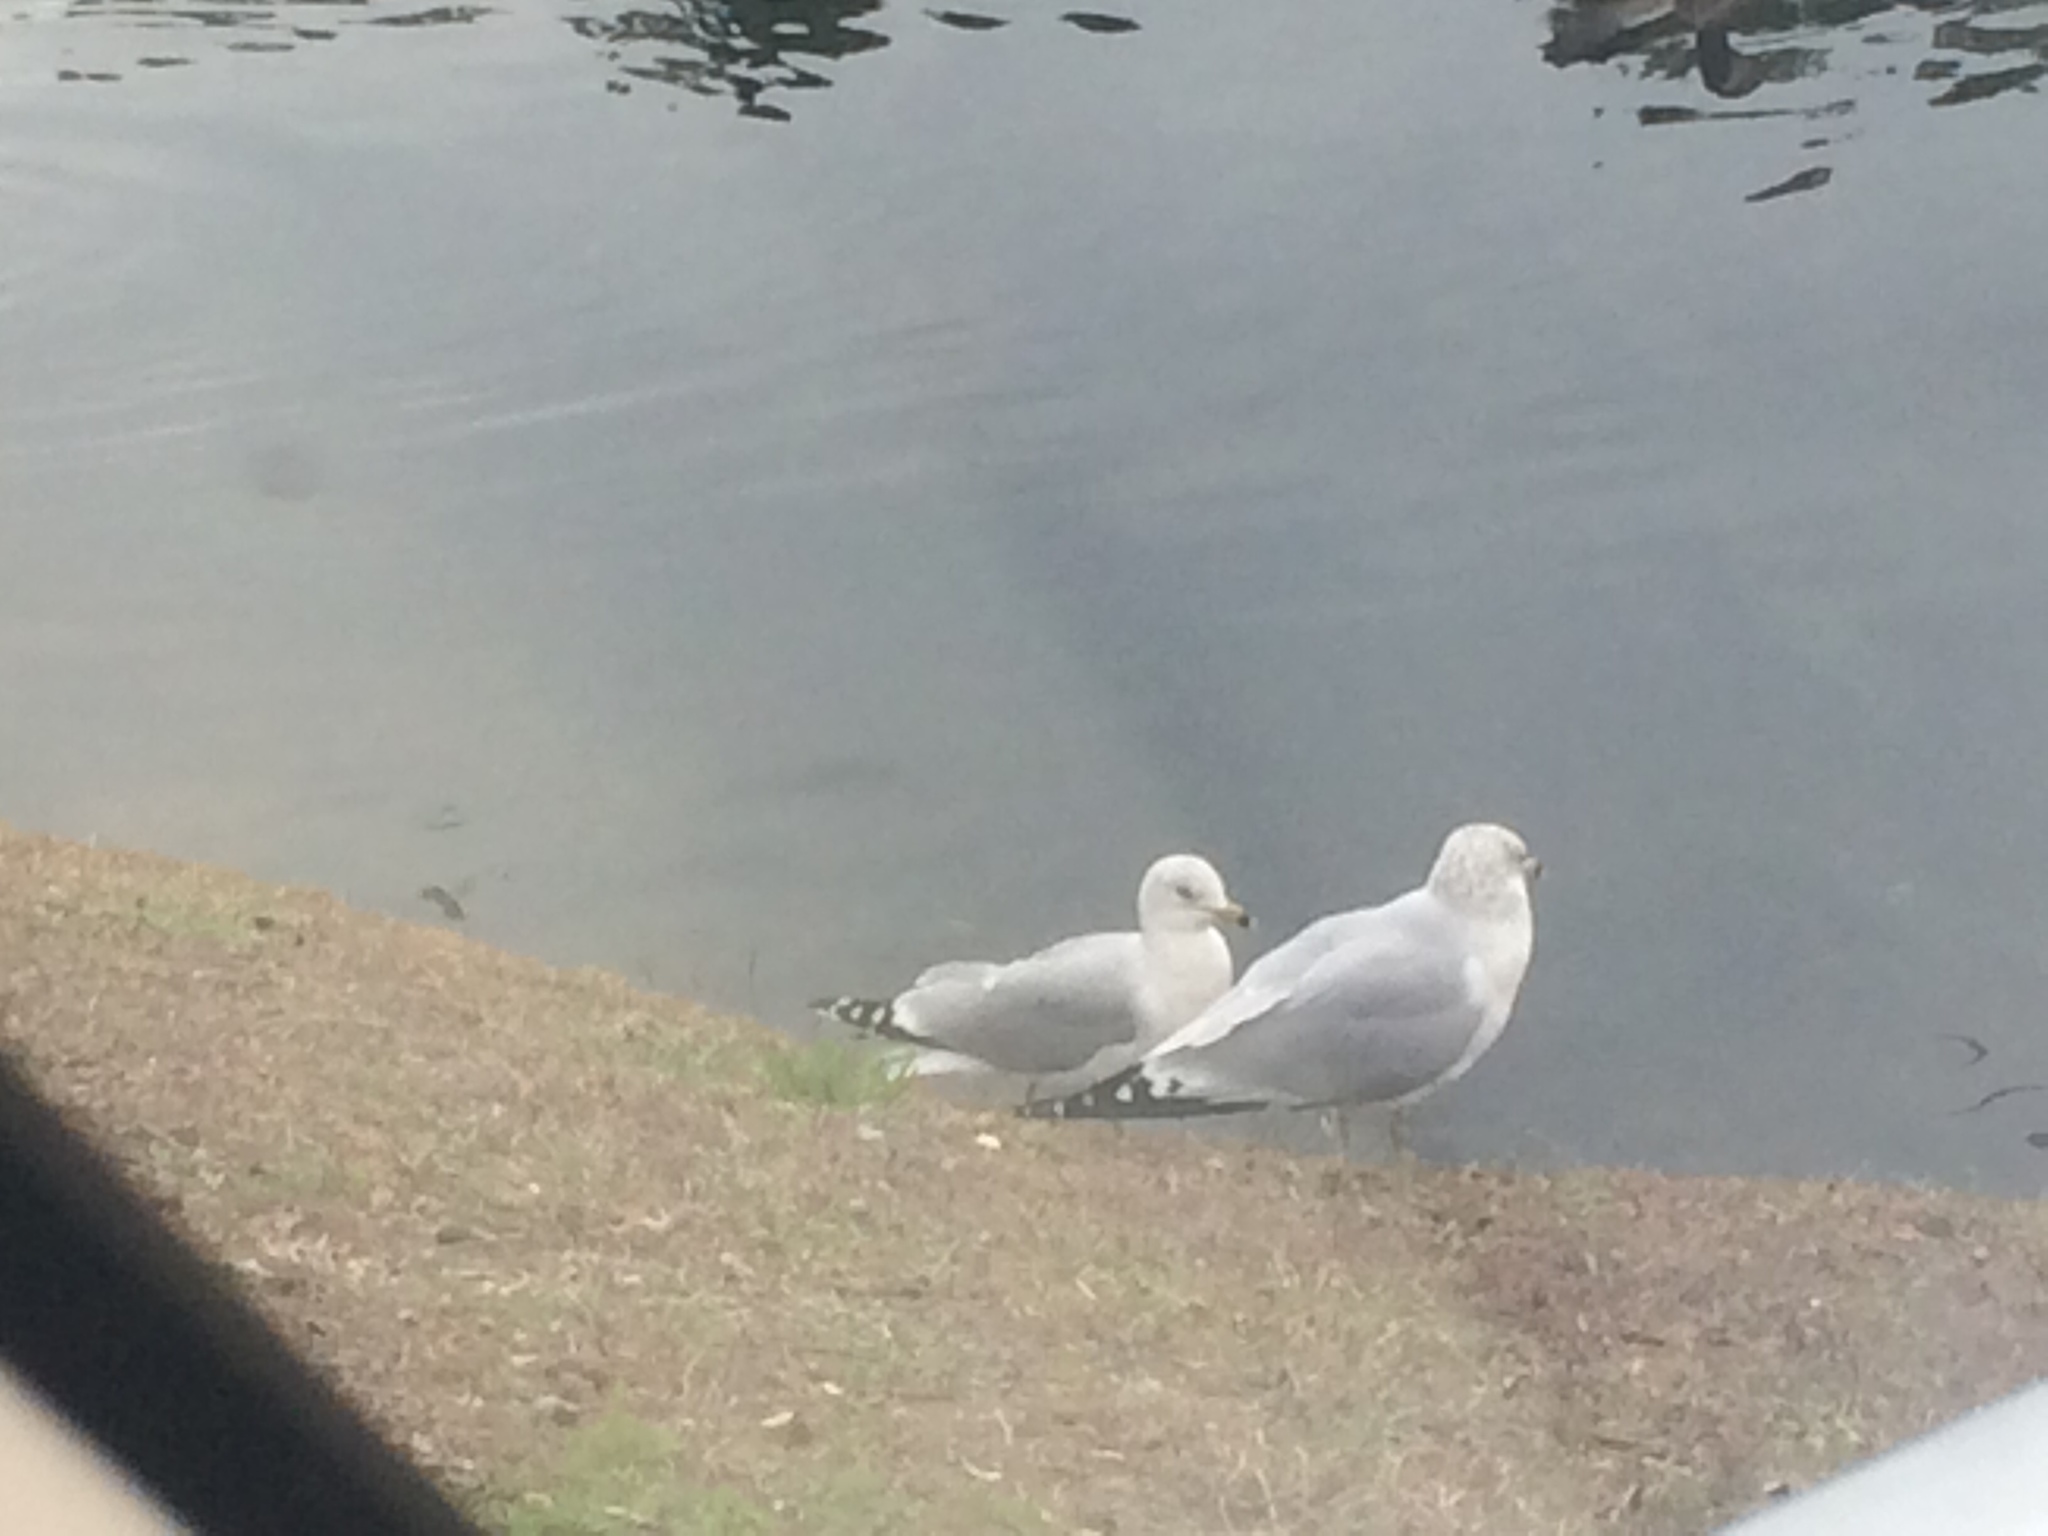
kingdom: Animalia
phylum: Chordata
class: Aves
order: Charadriiformes
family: Laridae
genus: Larus
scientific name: Larus delawarensis
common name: Ring-billed gull
